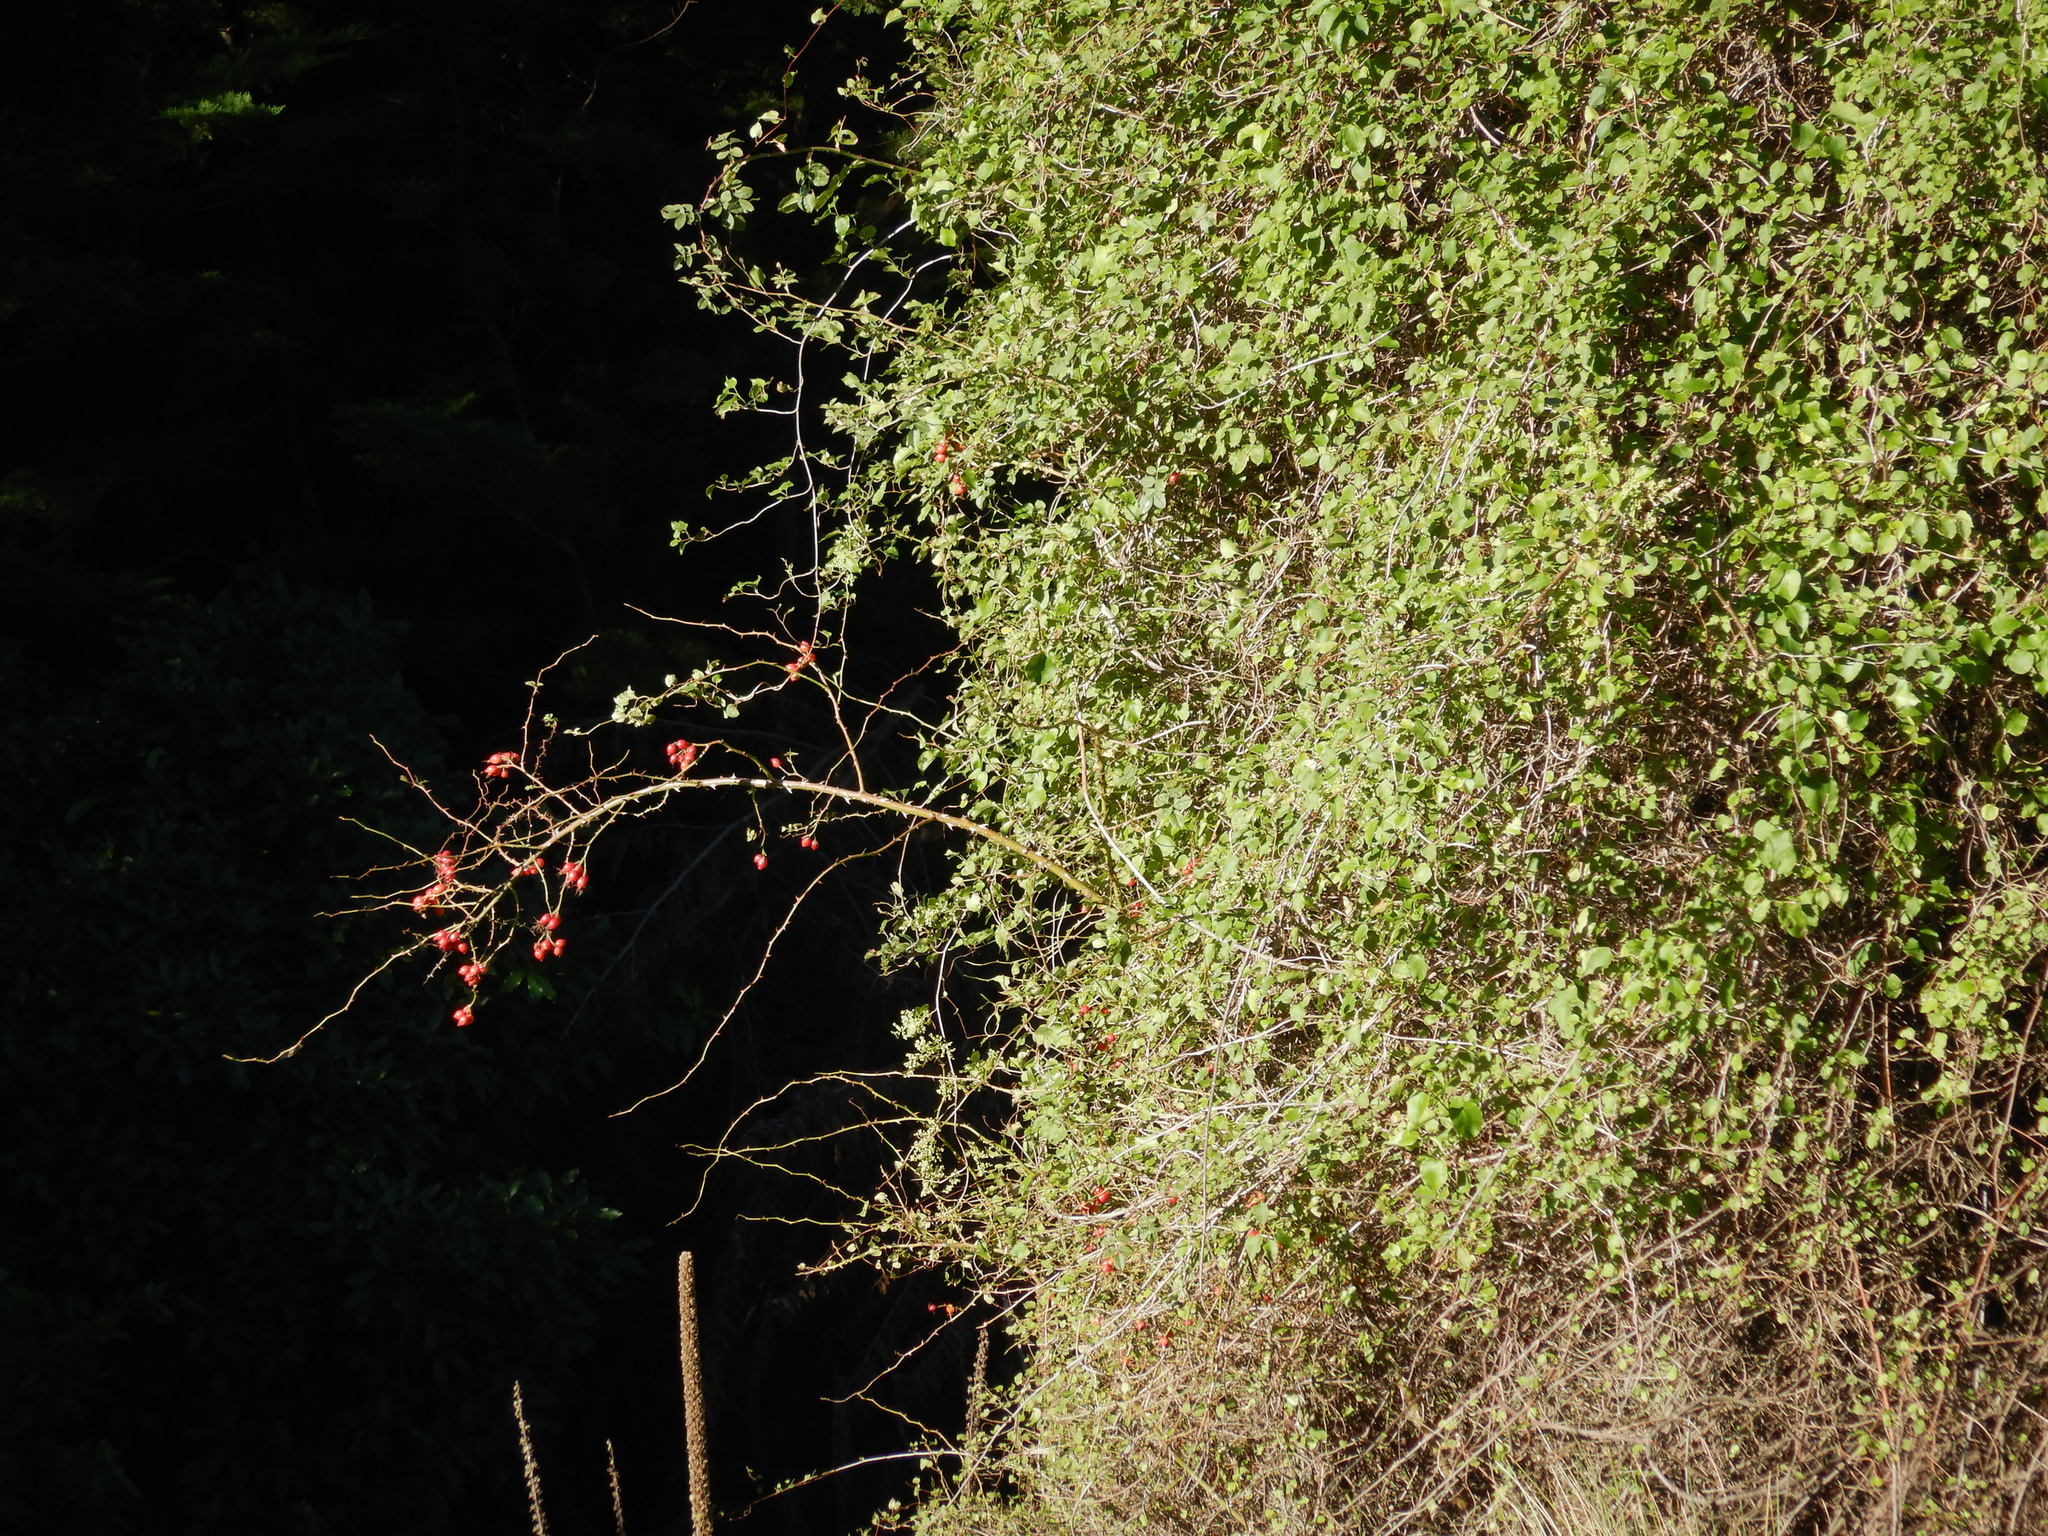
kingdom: Plantae
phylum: Tracheophyta
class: Magnoliopsida
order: Caryophyllales
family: Polygonaceae
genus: Muehlenbeckia
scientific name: Muehlenbeckia australis
